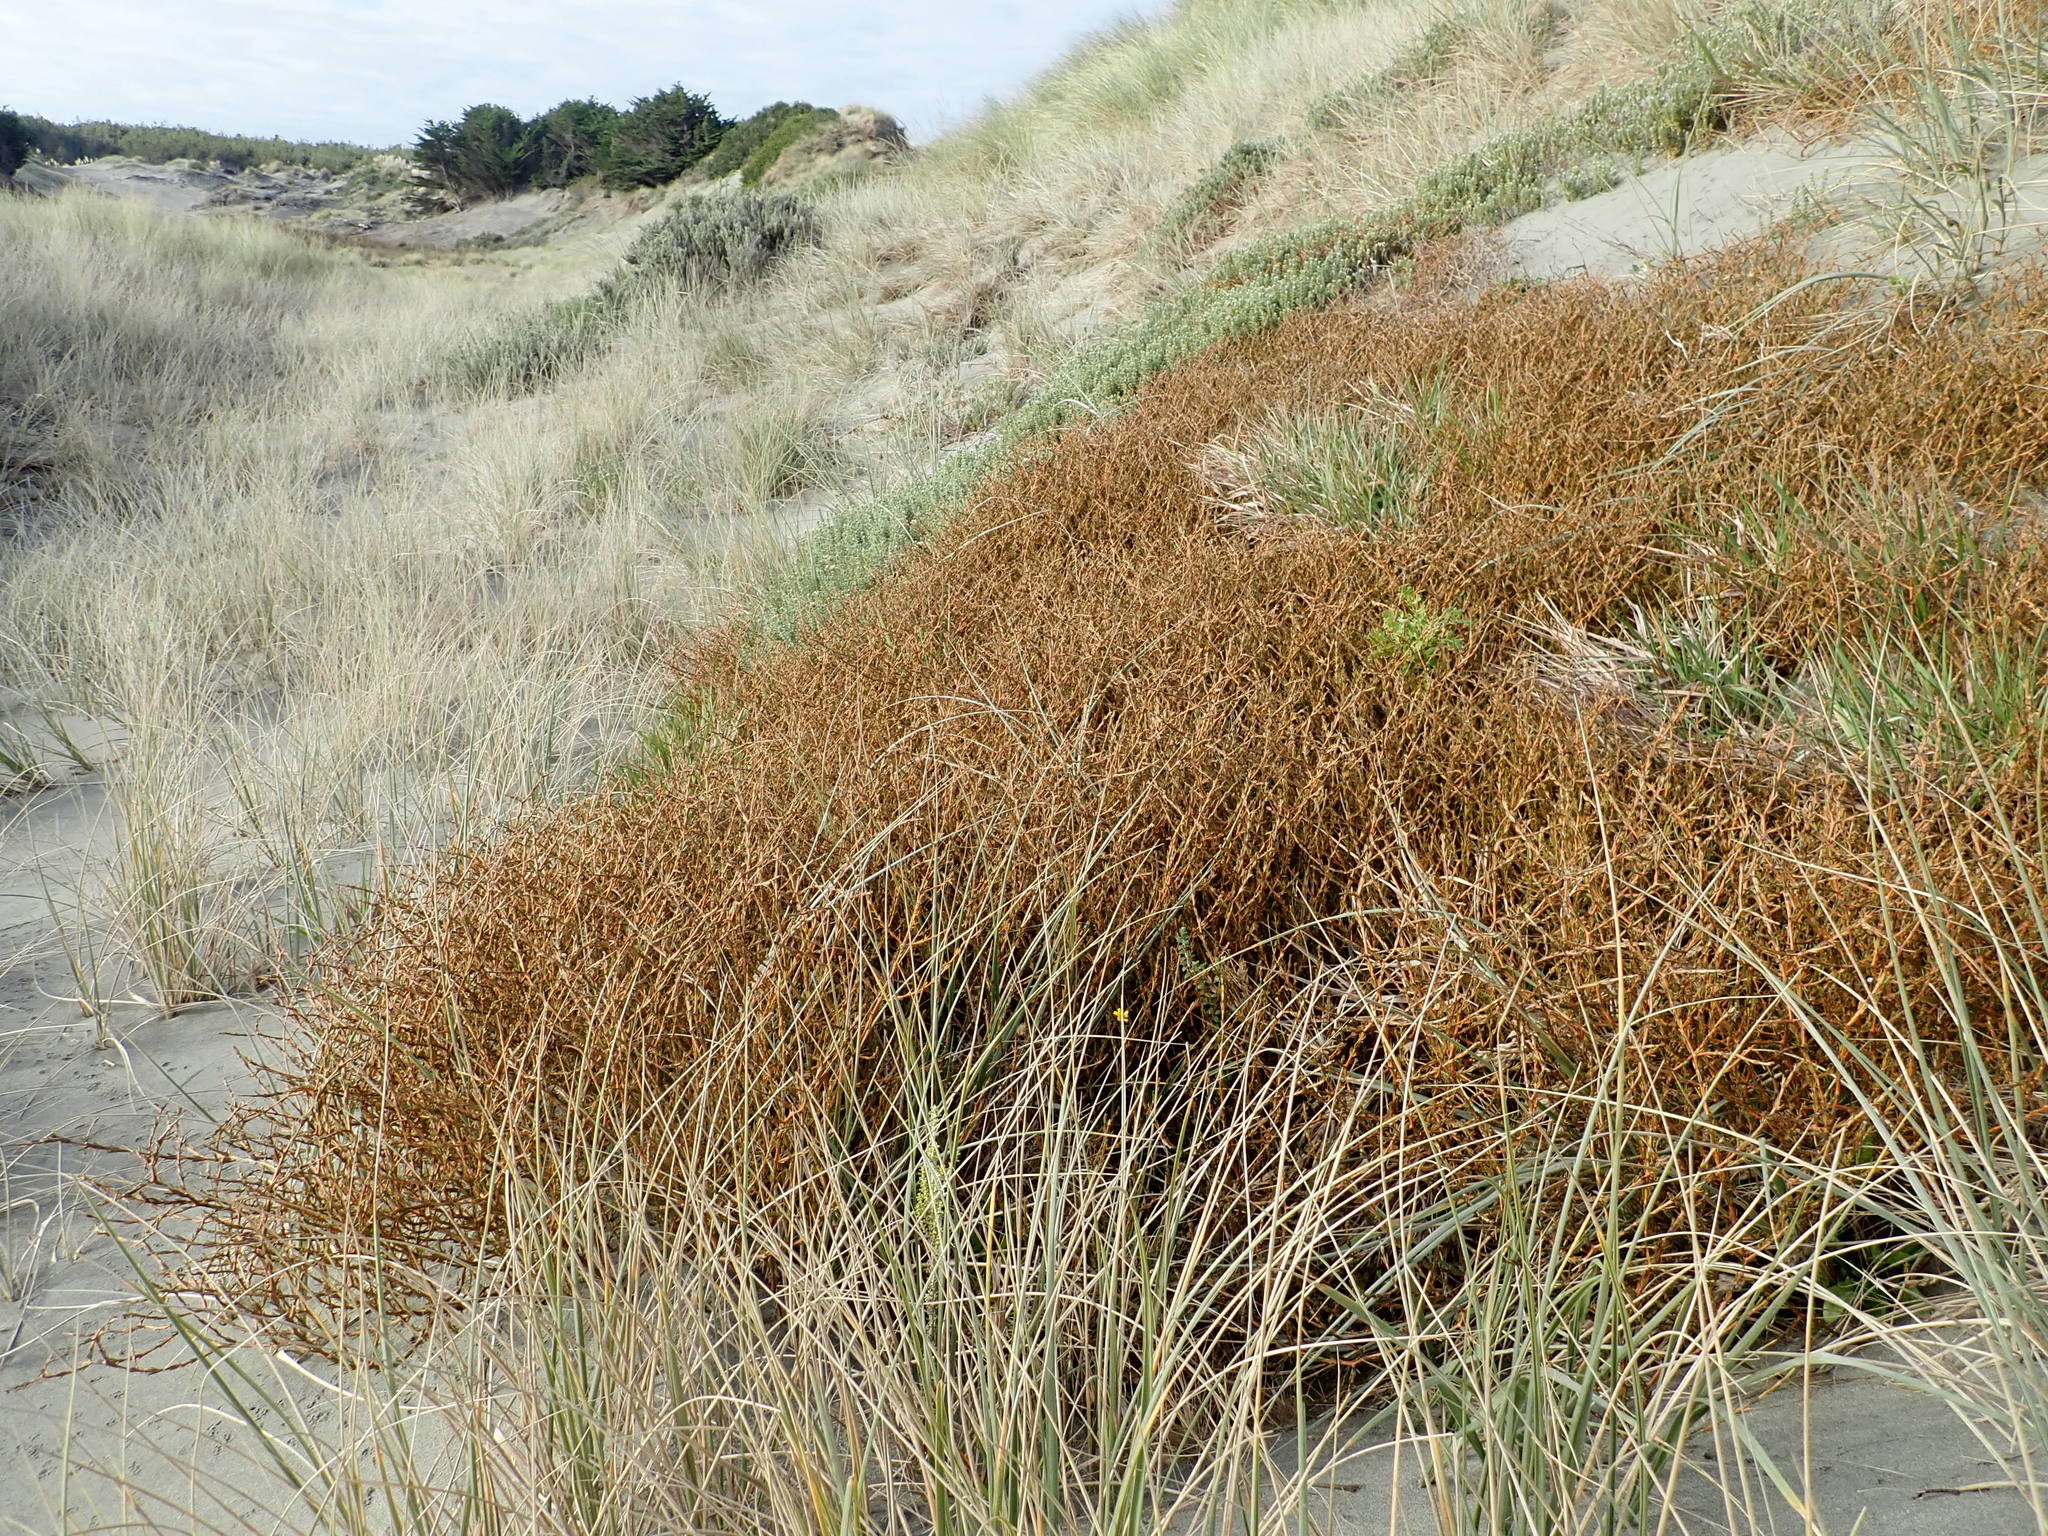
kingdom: Plantae
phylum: Tracheophyta
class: Magnoliopsida
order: Gentianales
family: Rubiaceae
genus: Coprosma
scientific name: Coprosma acerosa
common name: Sand coprosma
